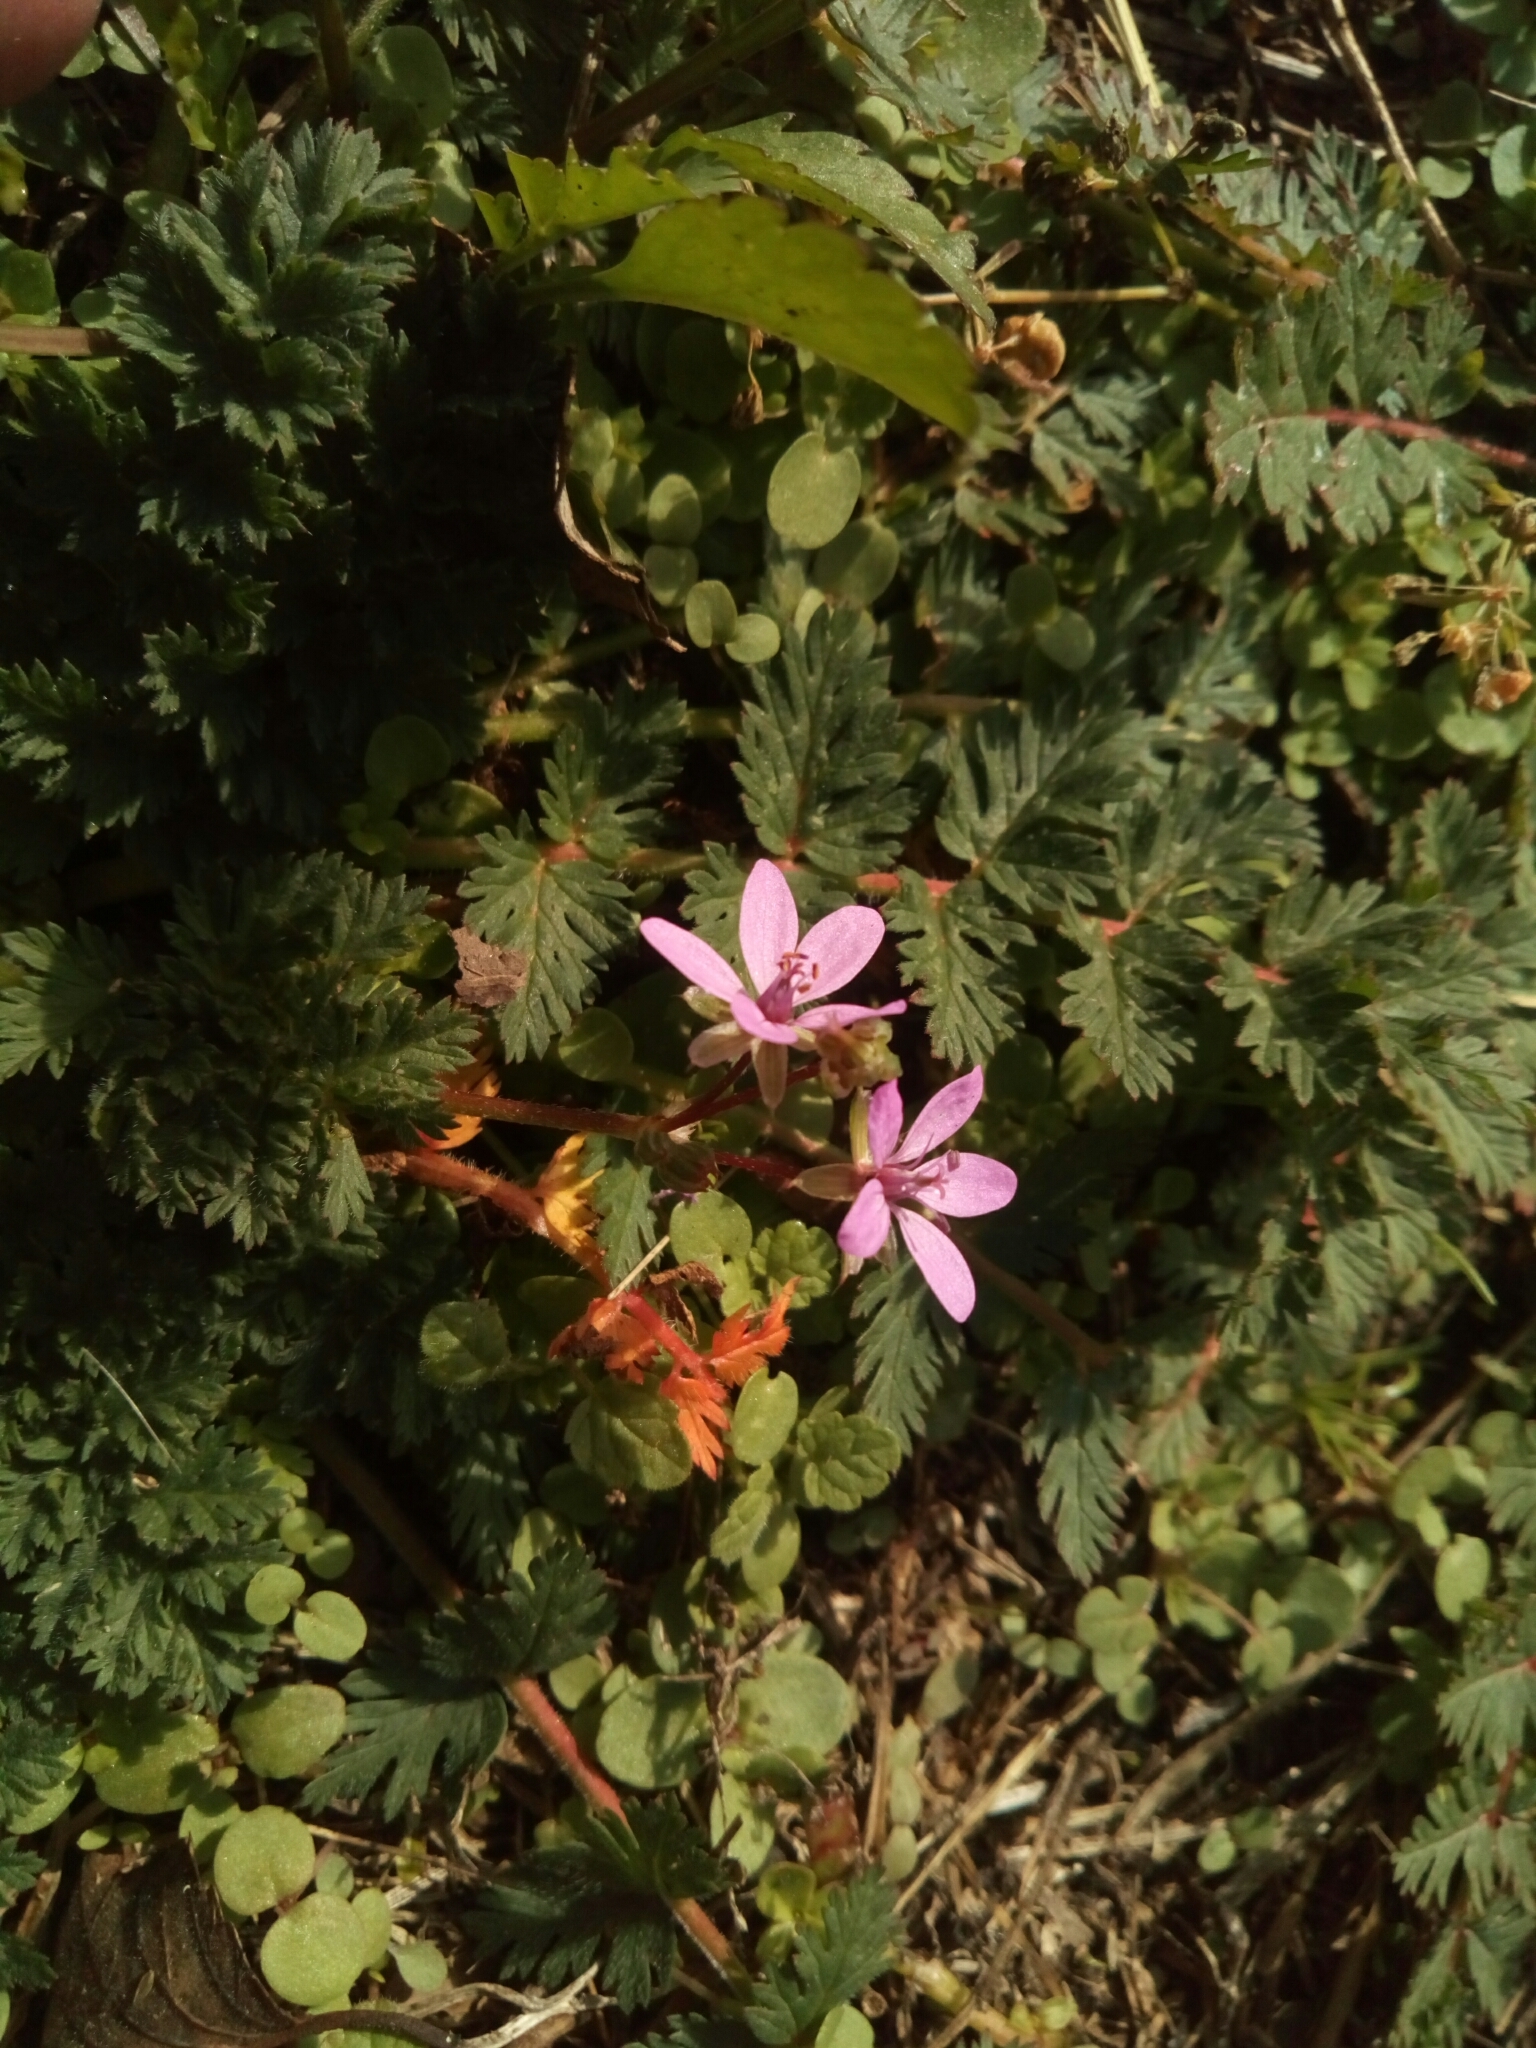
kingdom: Plantae
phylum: Tracheophyta
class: Magnoliopsida
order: Geraniales
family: Geraniaceae
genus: Erodium
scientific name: Erodium cicutarium
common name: Common stork's-bill
